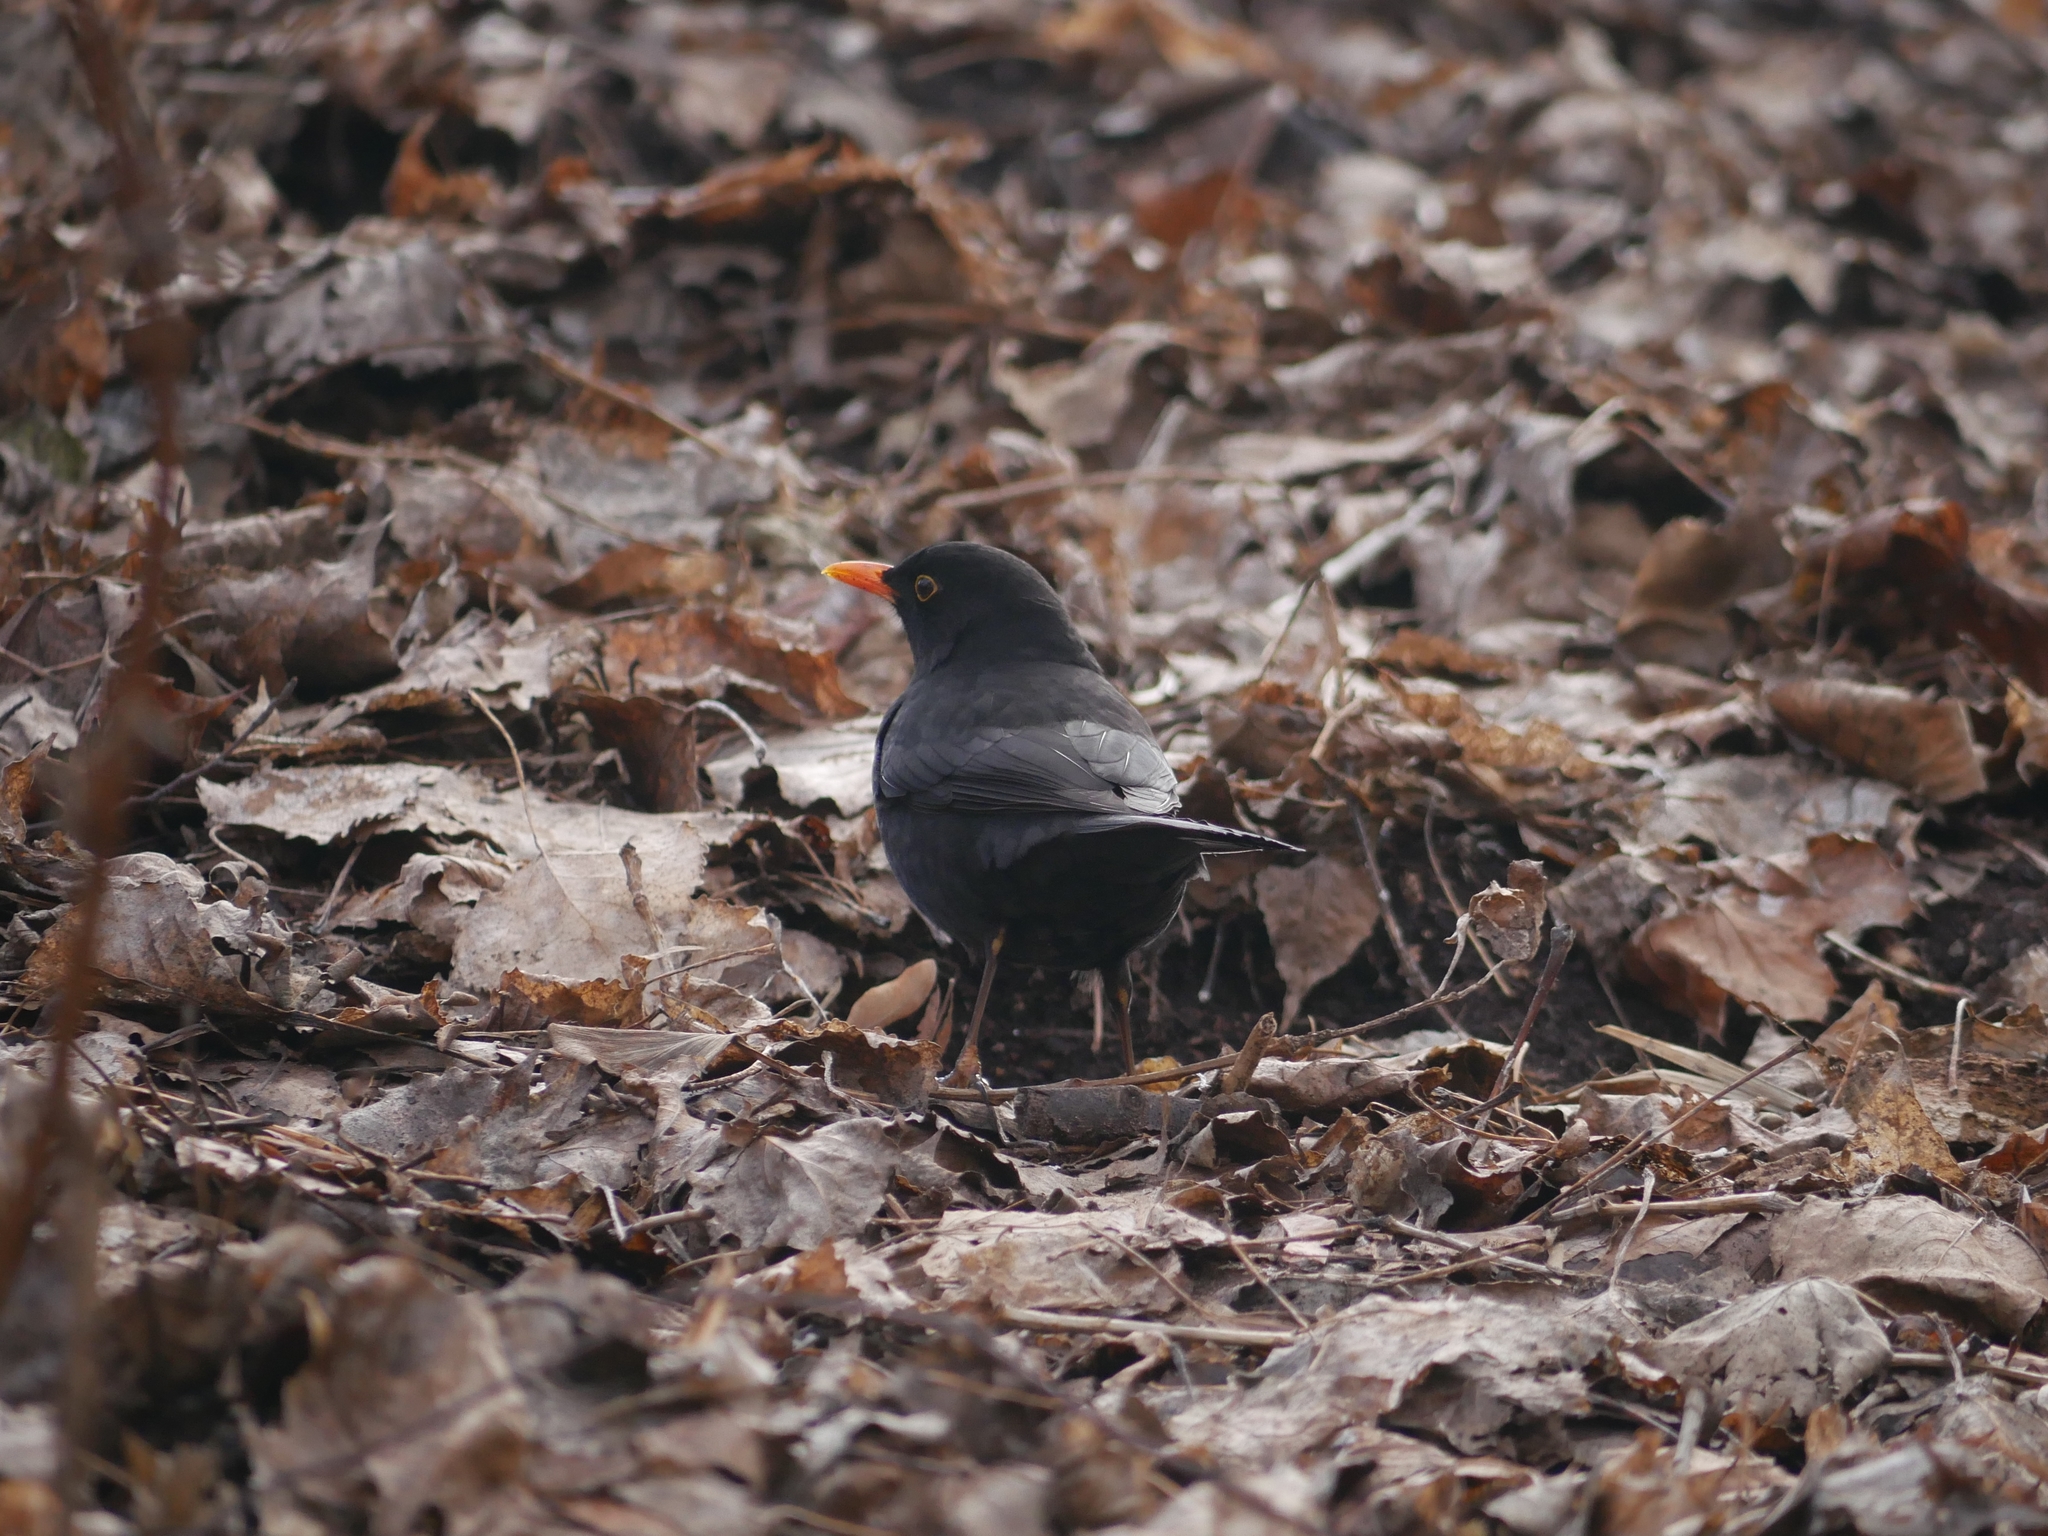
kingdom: Animalia
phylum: Chordata
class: Aves
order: Passeriformes
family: Turdidae
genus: Turdus
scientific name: Turdus merula
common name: Common blackbird
